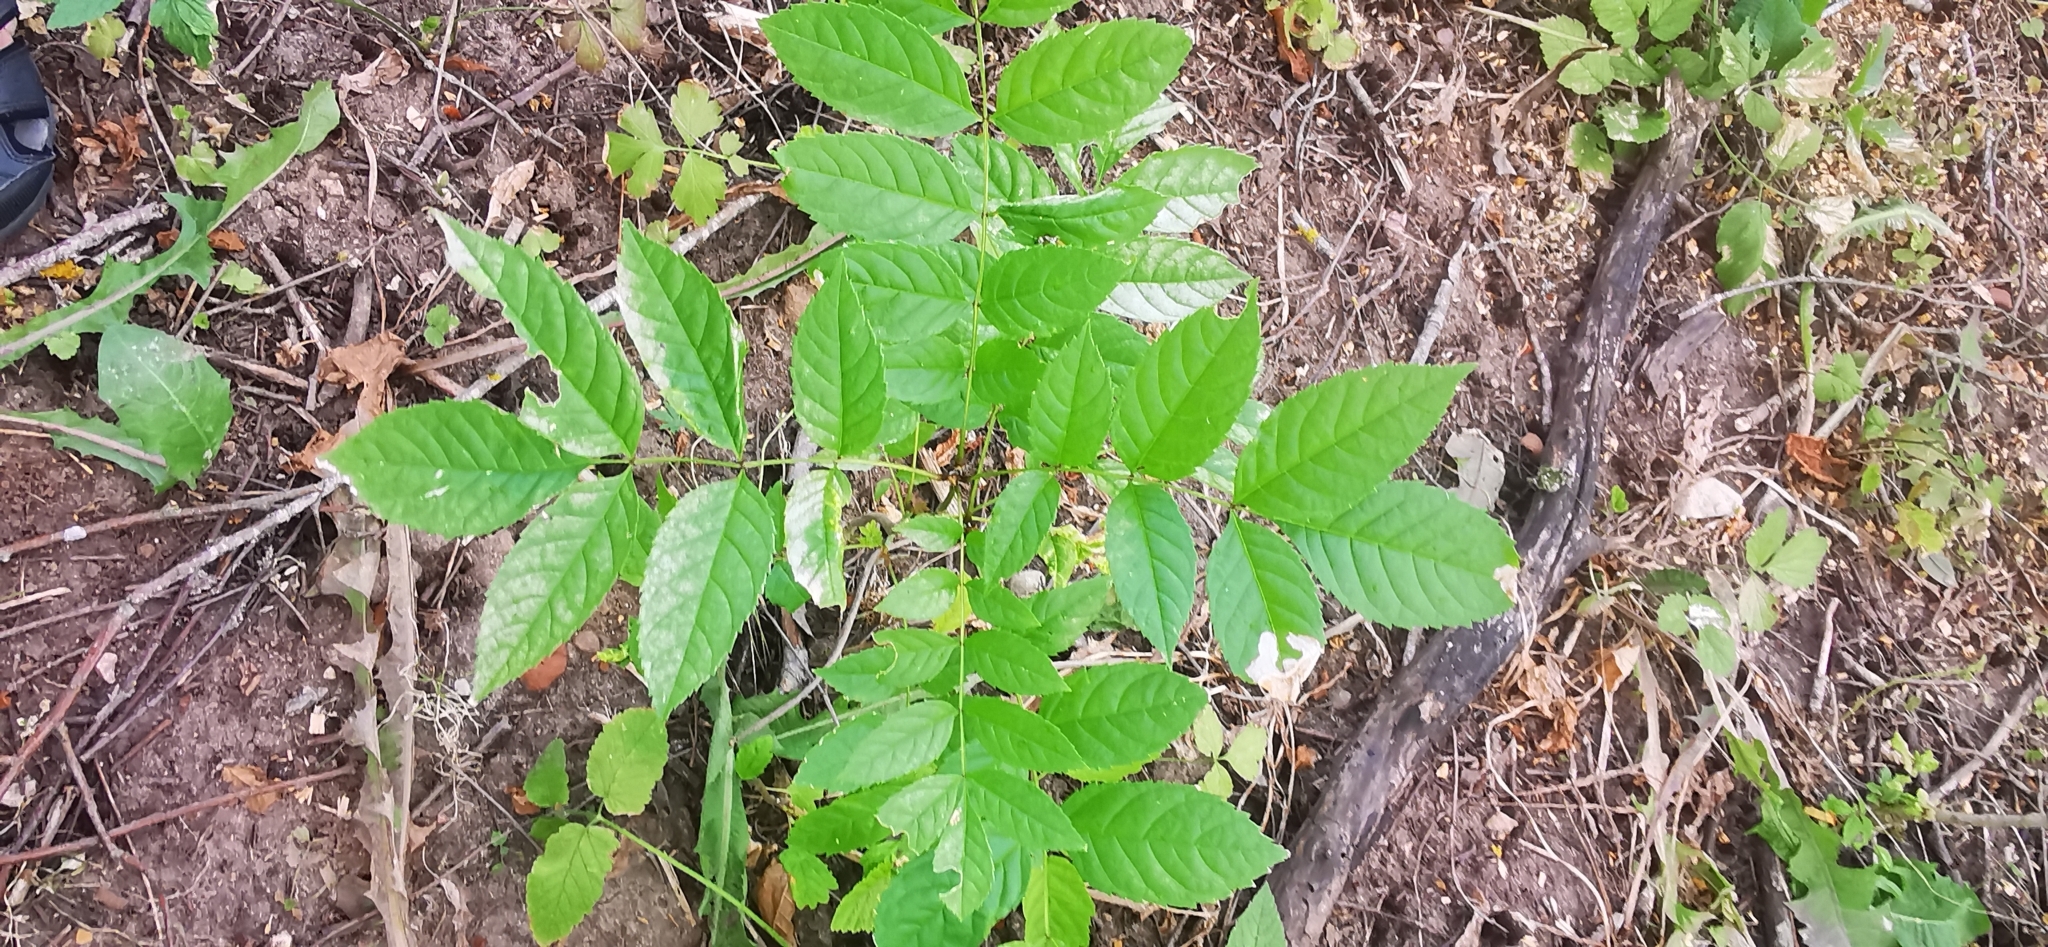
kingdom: Plantae
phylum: Tracheophyta
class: Magnoliopsida
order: Lamiales
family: Oleaceae
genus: Fraxinus
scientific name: Fraxinus excelsior
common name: European ash
